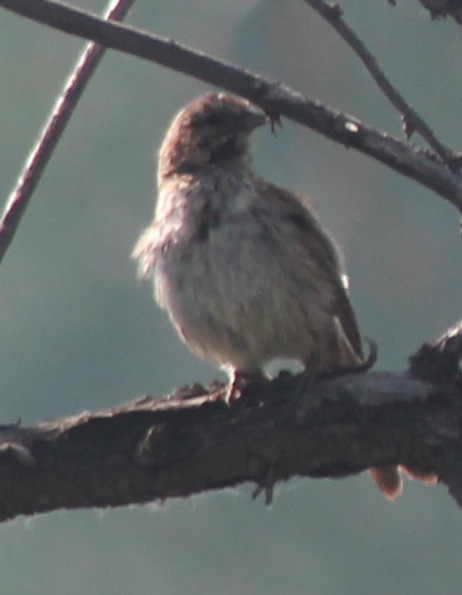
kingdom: Animalia
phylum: Chordata
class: Aves
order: Passeriformes
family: Passerellidae
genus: Melospiza
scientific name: Melospiza melodia
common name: Song sparrow
